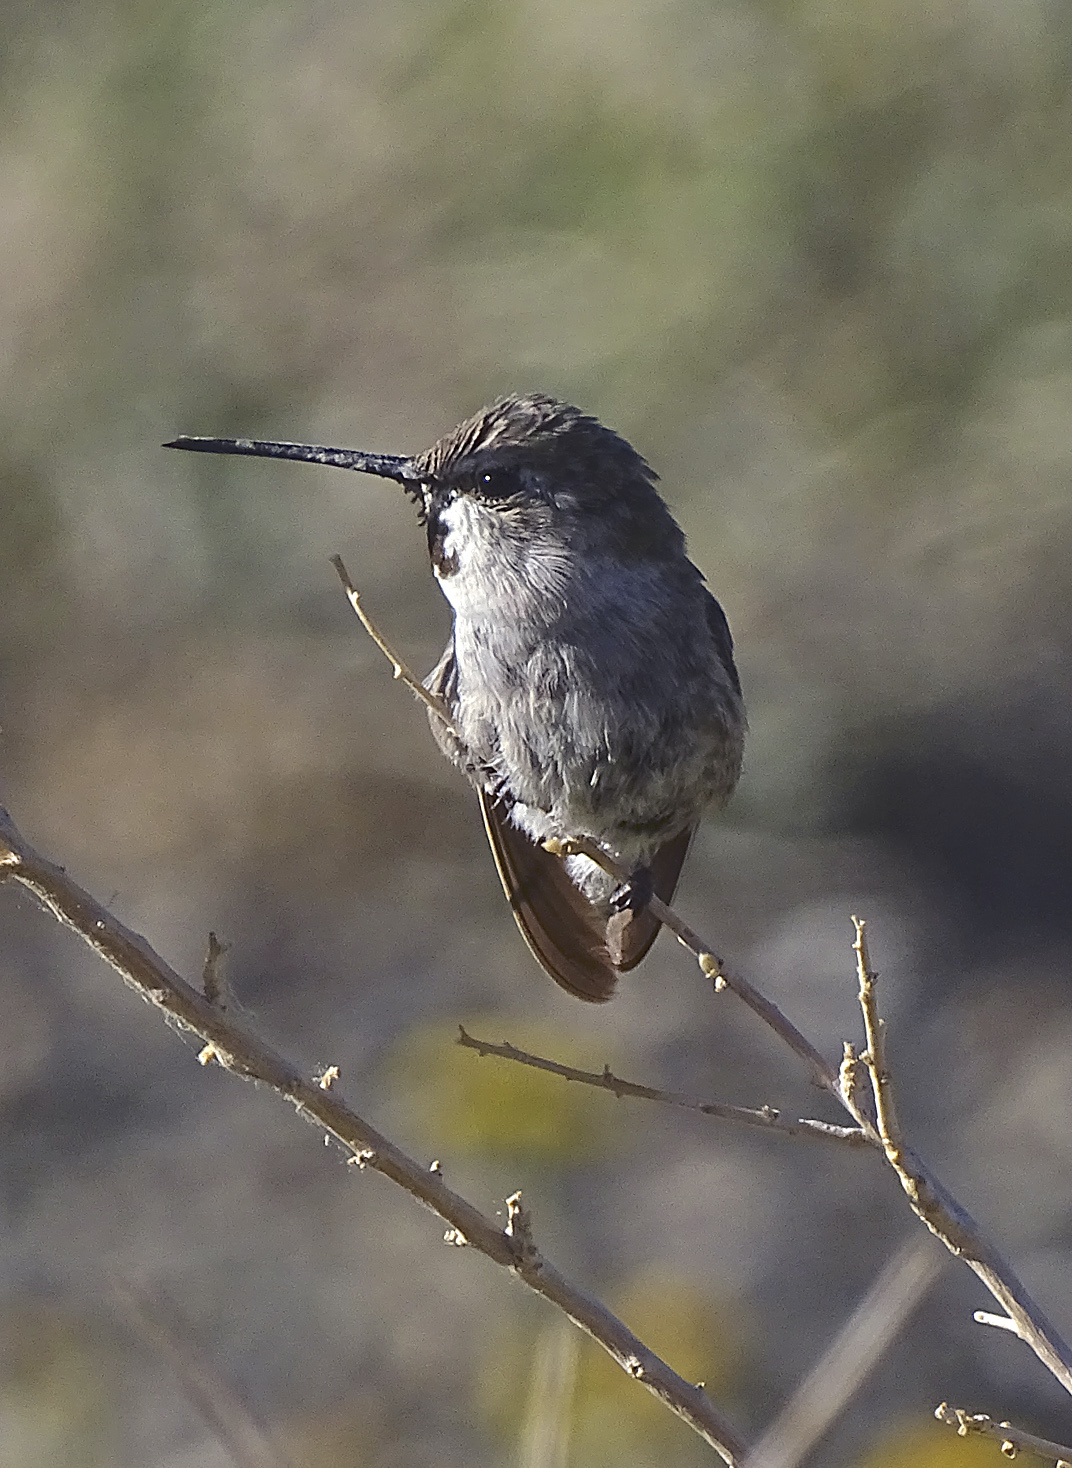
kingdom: Animalia
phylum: Chordata
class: Aves
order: Apodiformes
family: Trochilidae
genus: Calypte
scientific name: Calypte costae
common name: Costa's hummingbird
